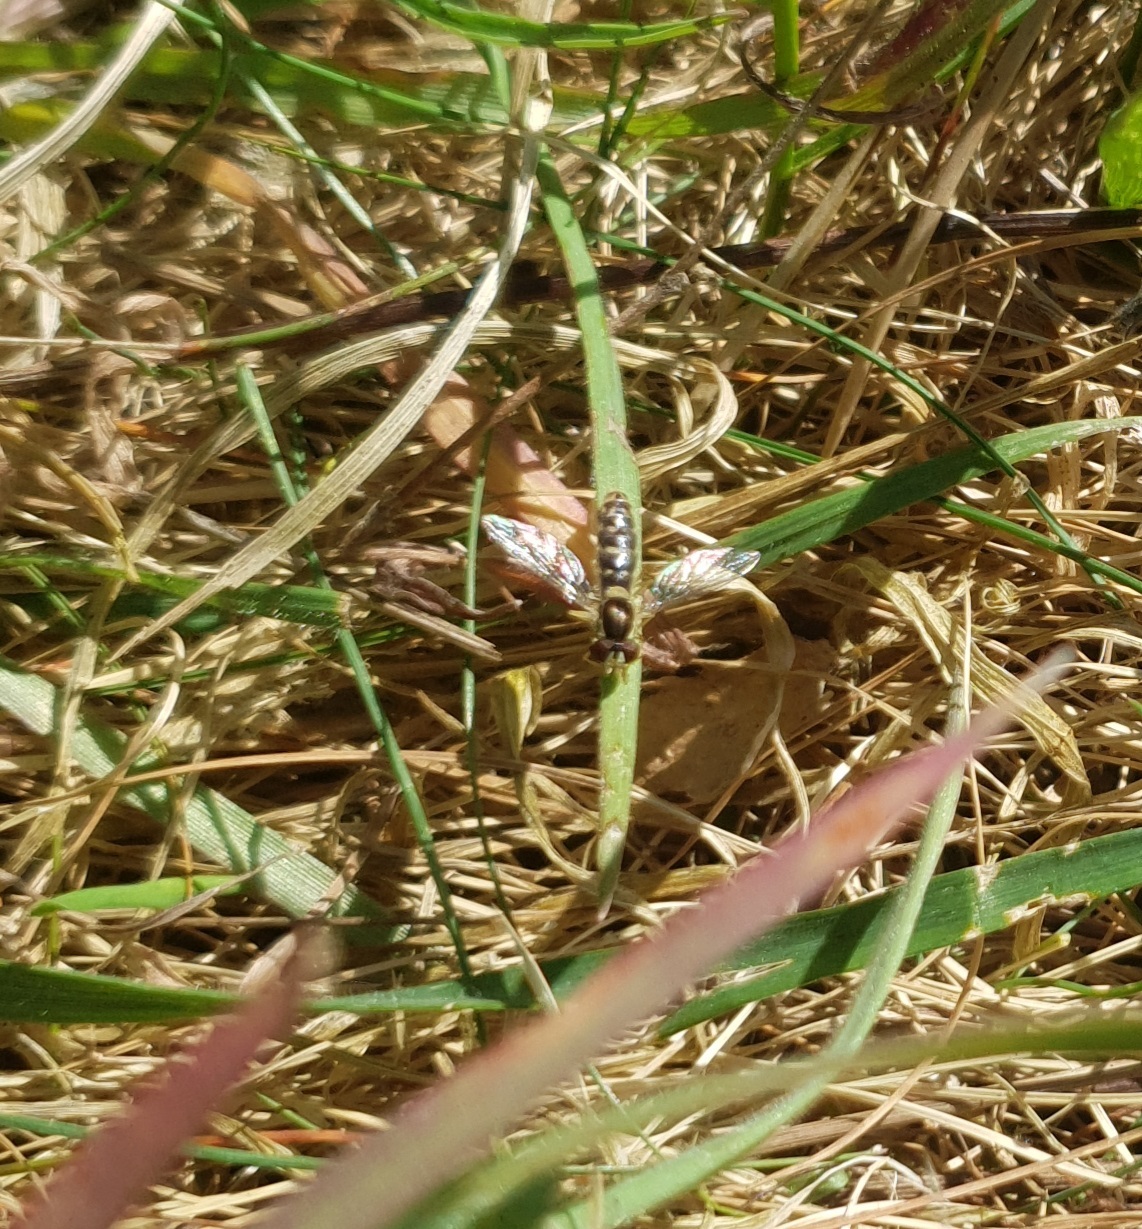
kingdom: Animalia
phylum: Arthropoda
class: Insecta
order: Diptera
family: Syrphidae
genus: Sphaerophoria
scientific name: Sphaerophoria
